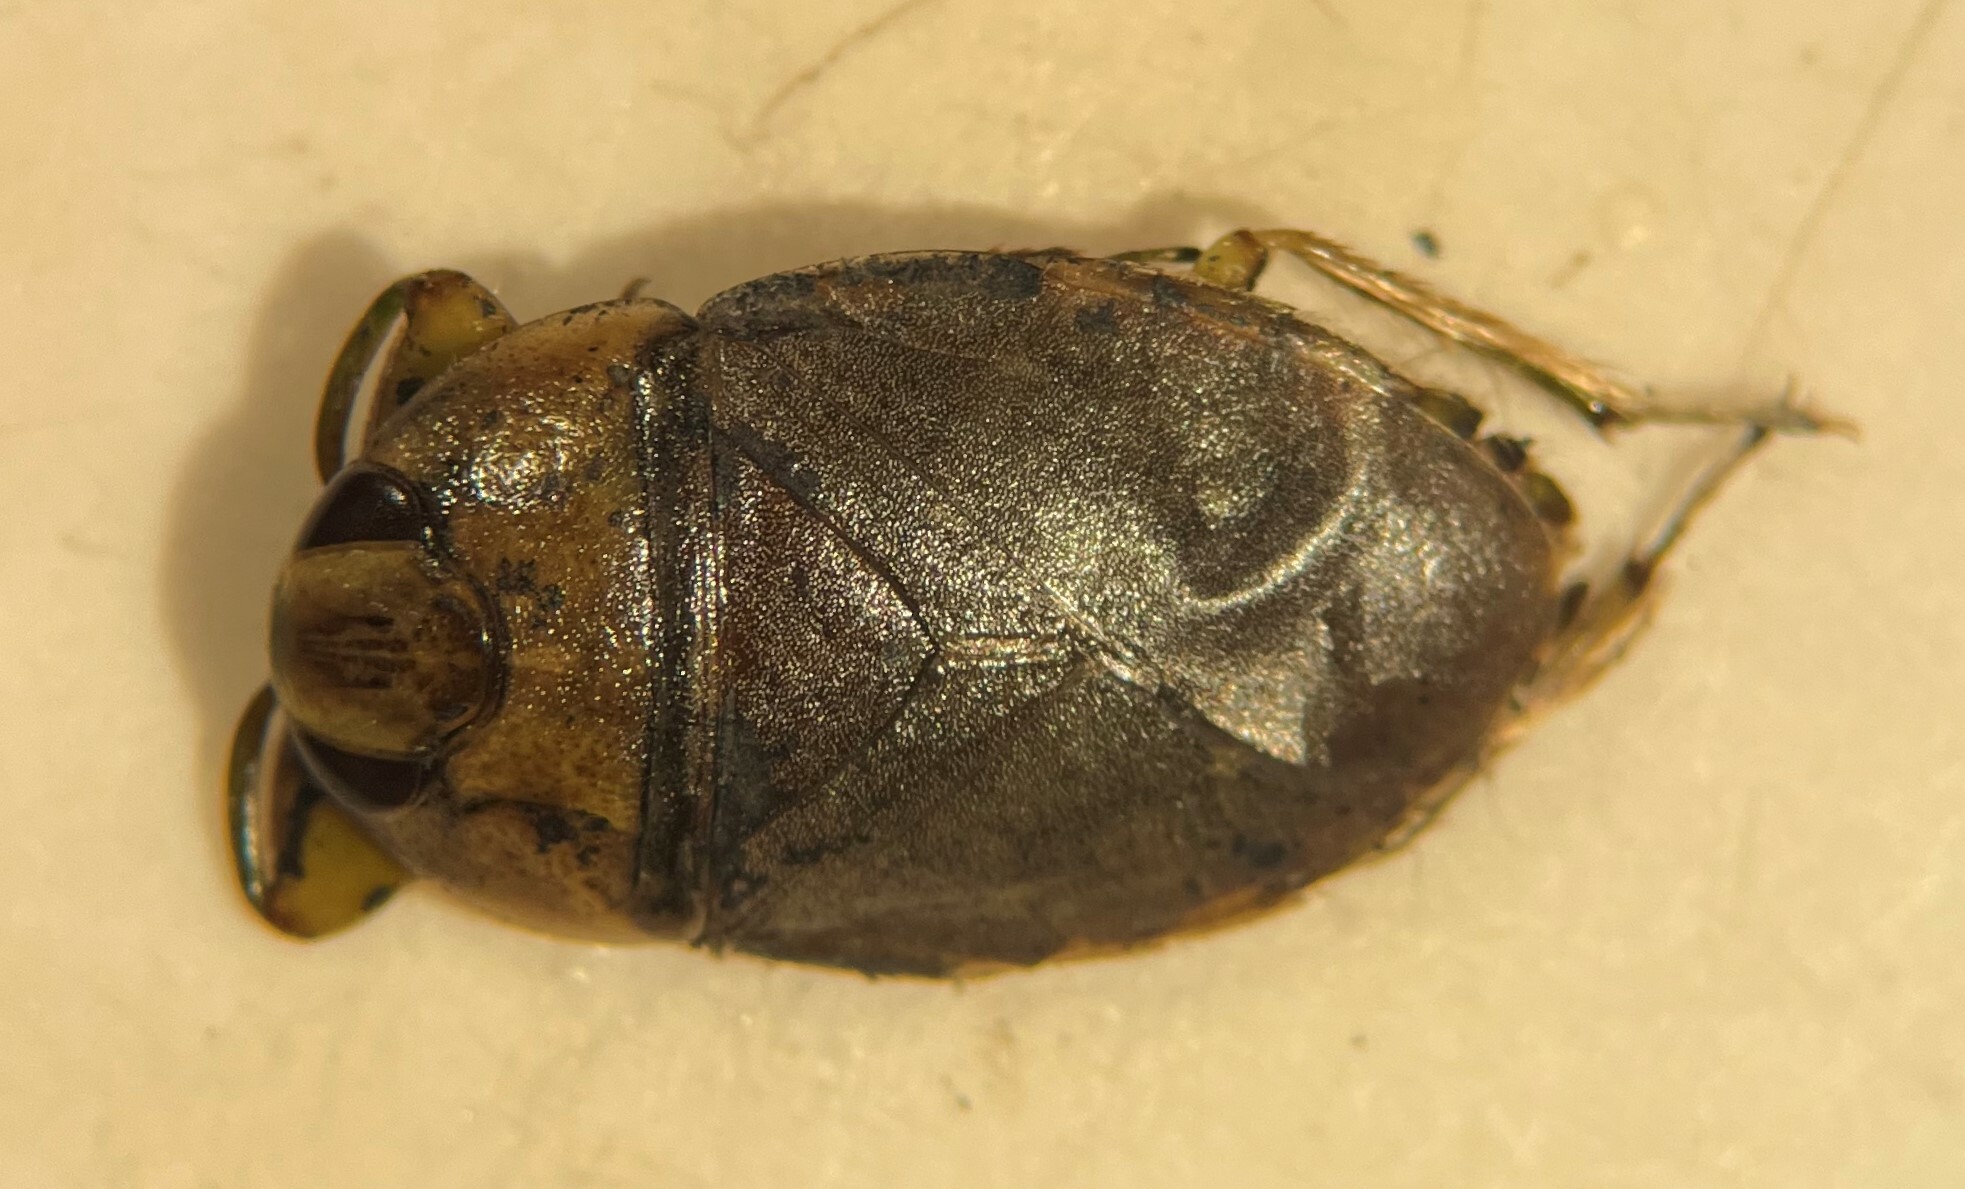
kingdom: Animalia
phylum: Arthropoda
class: Insecta
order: Hemiptera
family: Naucoridae
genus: Ambrysus
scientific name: Ambrysus buenoi
